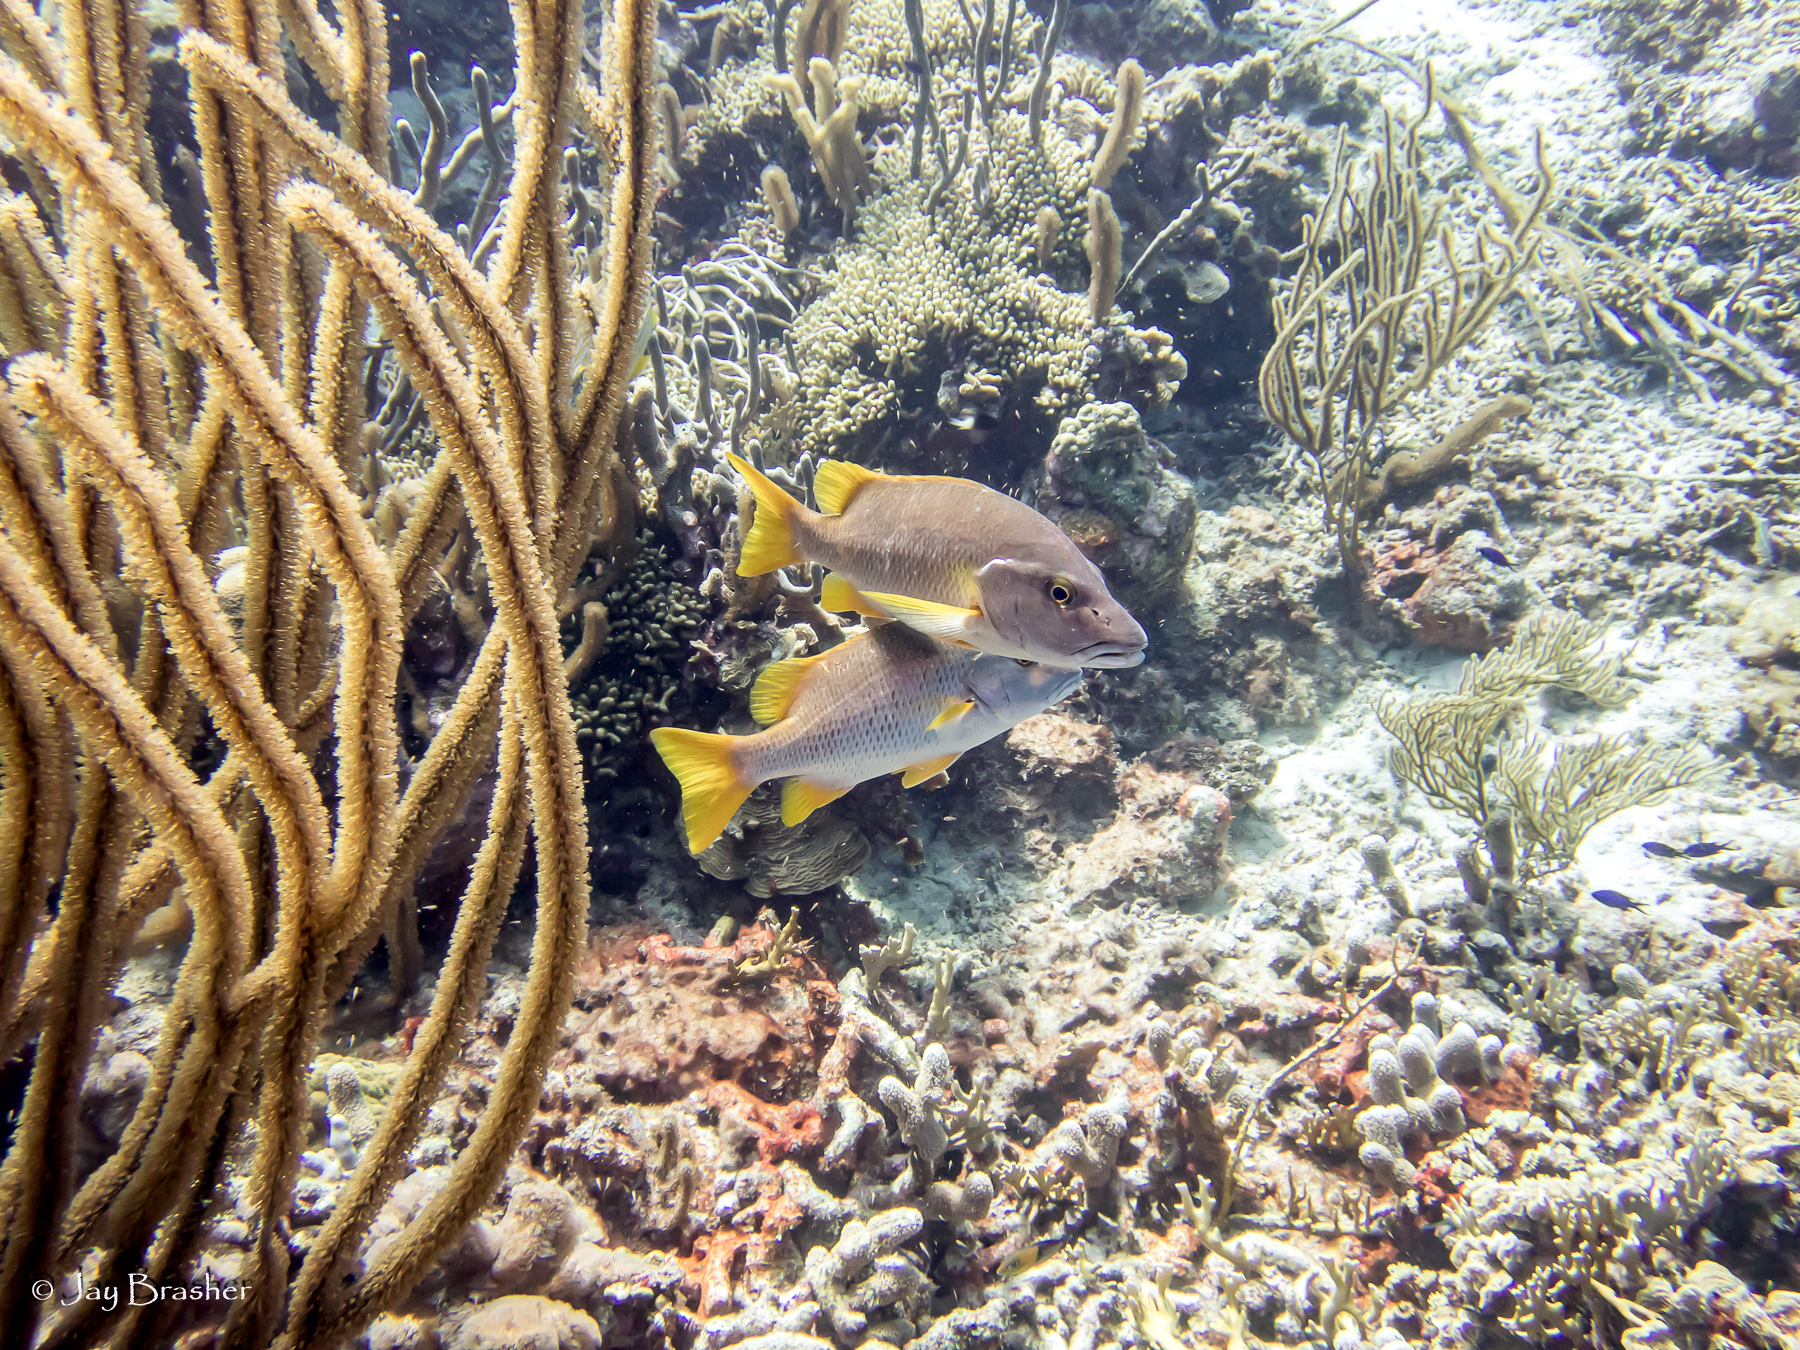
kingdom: Animalia
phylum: Chordata
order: Perciformes
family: Lutjanidae
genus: Lutjanus
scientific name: Lutjanus apodus
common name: Schoolmaster
